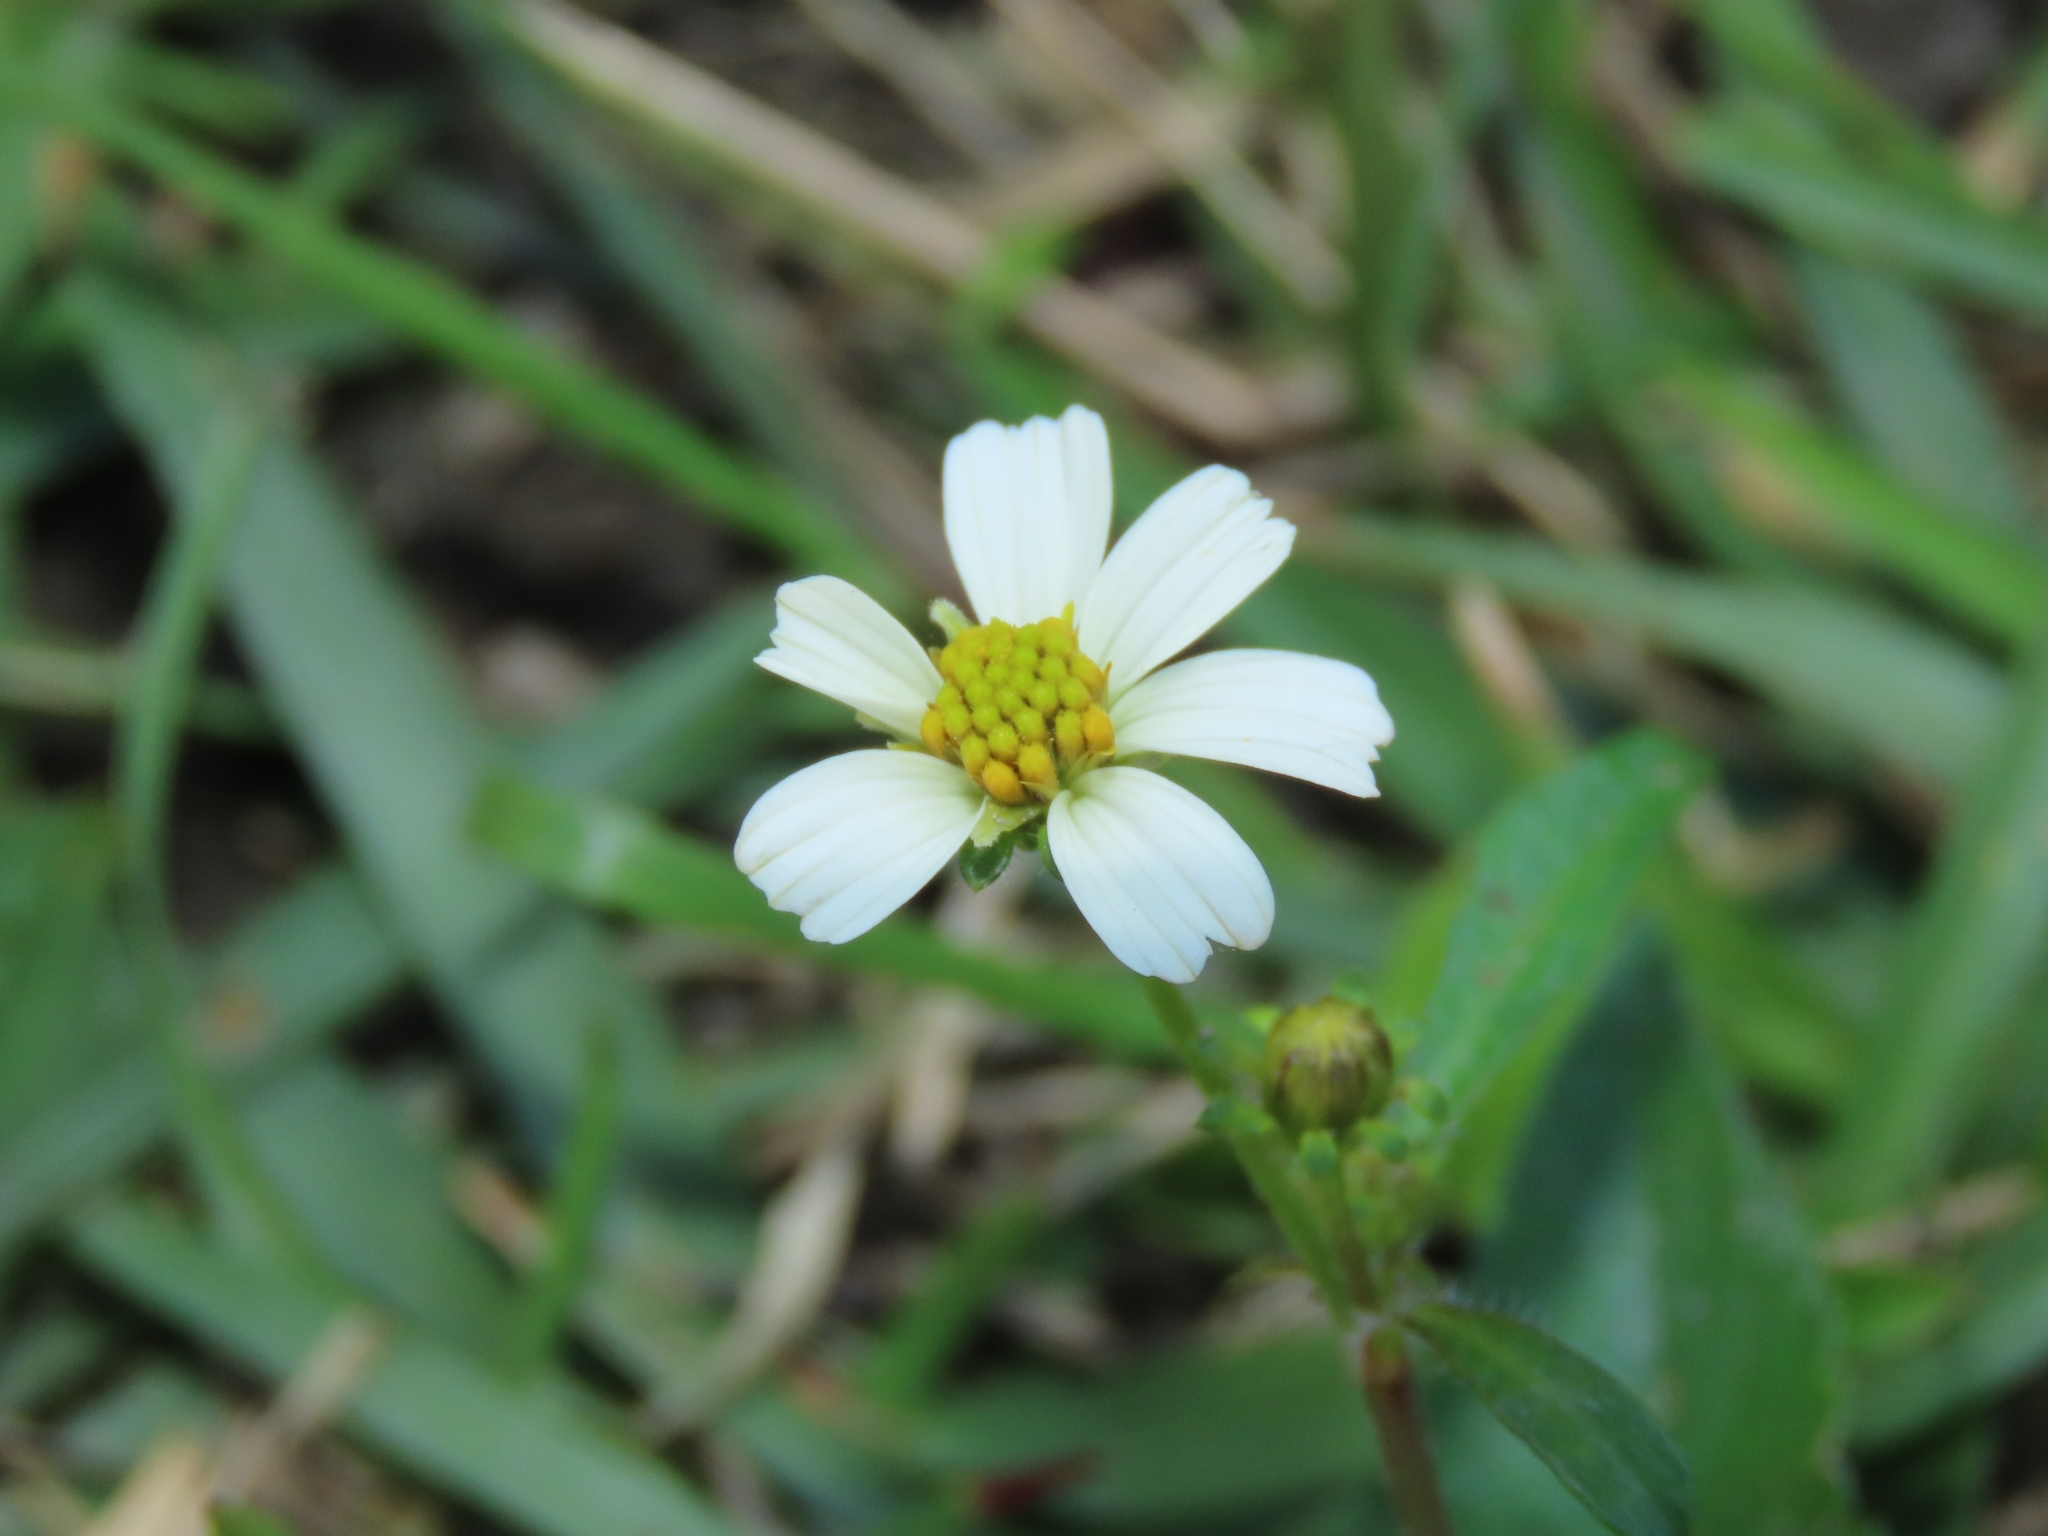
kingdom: Plantae
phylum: Tracheophyta
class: Magnoliopsida
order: Asterales
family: Asteraceae
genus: Bidens
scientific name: Bidens alba
